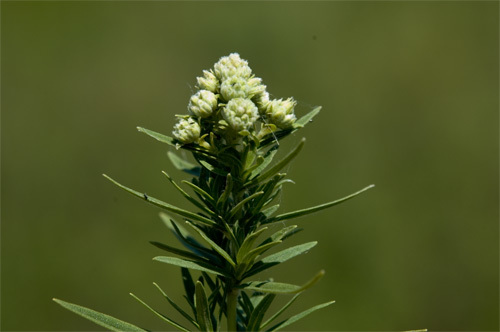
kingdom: Plantae
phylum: Tracheophyta
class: Magnoliopsida
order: Lamiales
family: Lamiaceae
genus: Pycnanthemum
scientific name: Pycnanthemum virginianum
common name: Virginia mountain-mint
